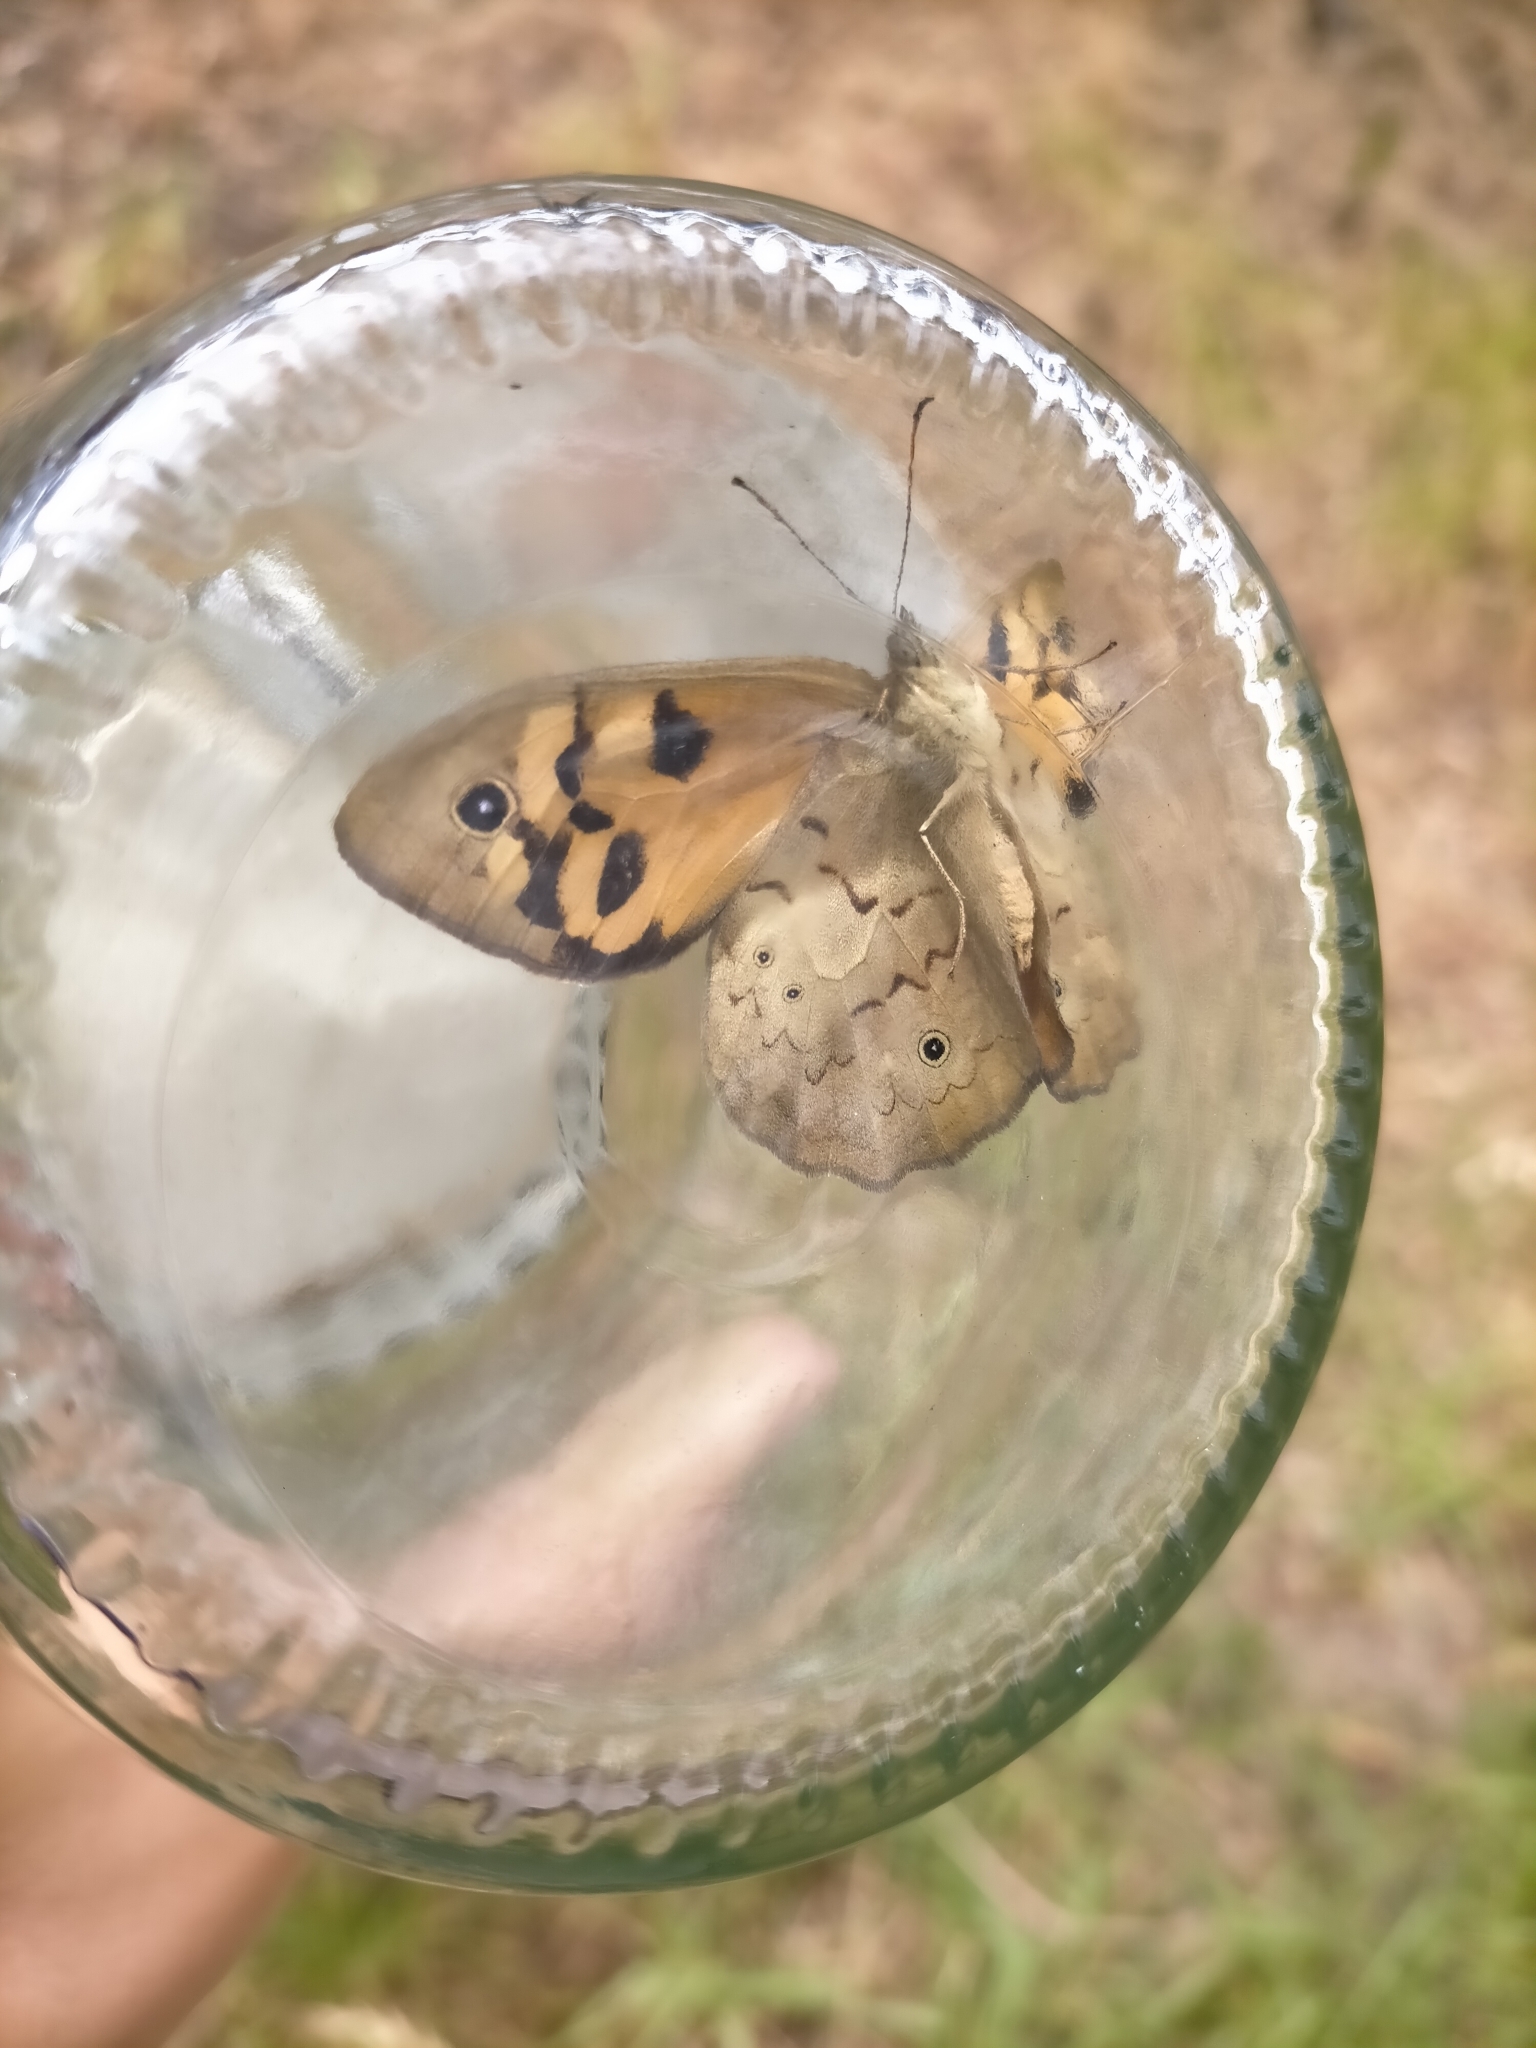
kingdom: Animalia
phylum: Arthropoda
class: Insecta
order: Lepidoptera
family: Nymphalidae
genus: Heteronympha
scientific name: Heteronympha merope
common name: Common brown
